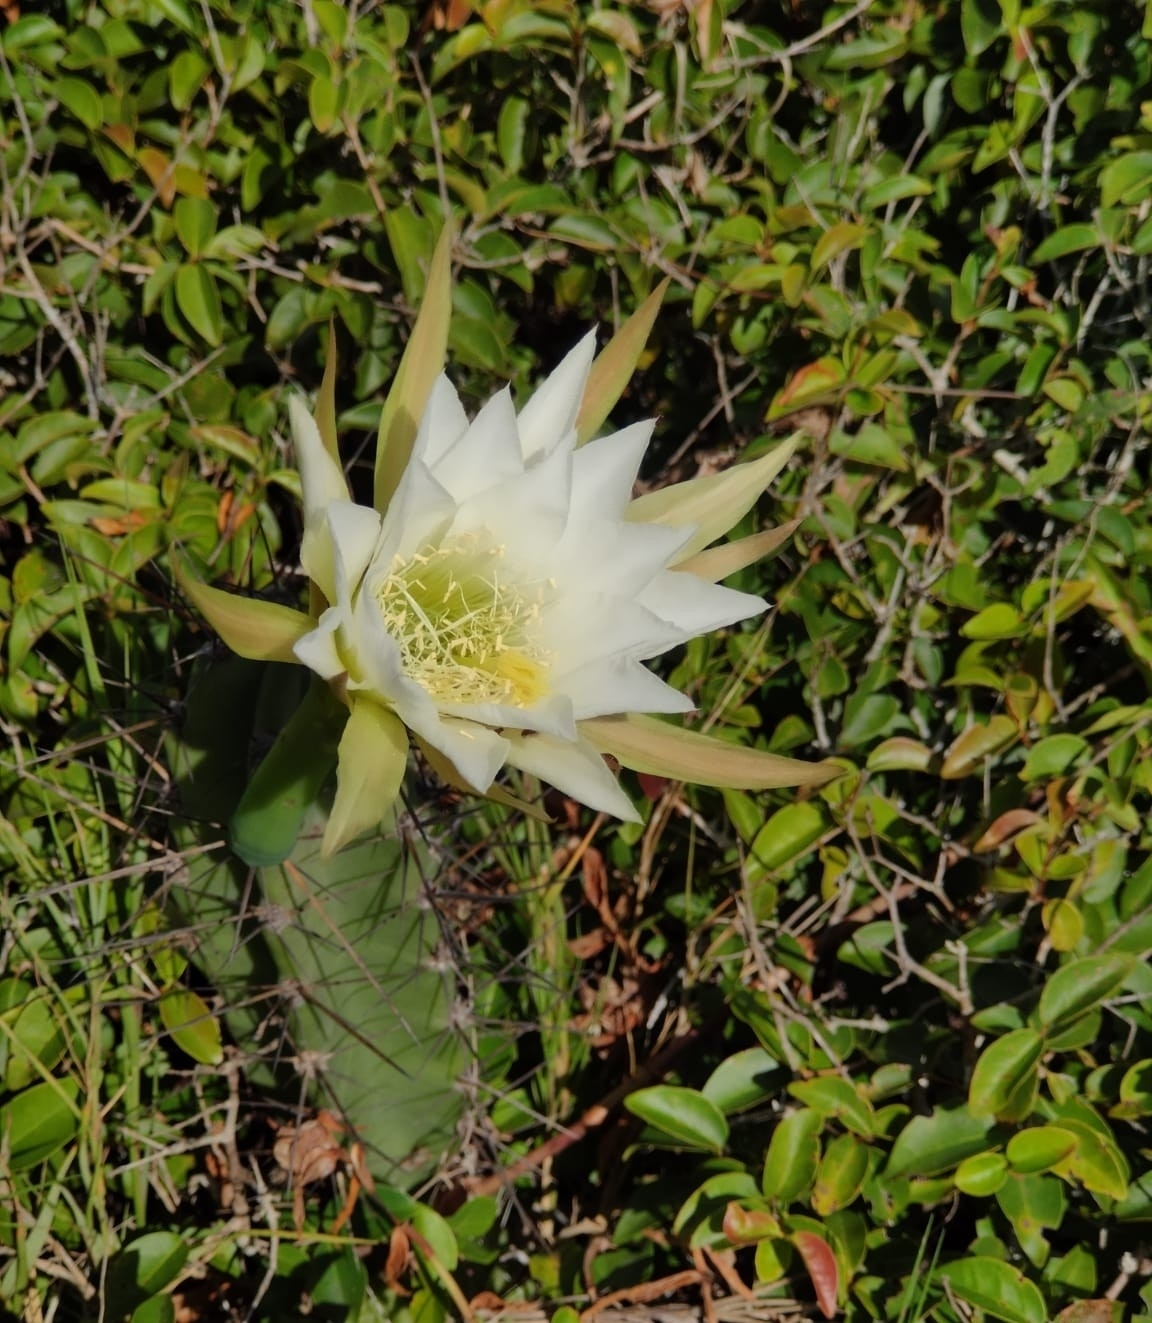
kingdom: Plantae
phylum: Tracheophyta
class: Magnoliopsida
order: Caryophyllales
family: Cactaceae
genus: Cereus
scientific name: Cereus fernambucensis
